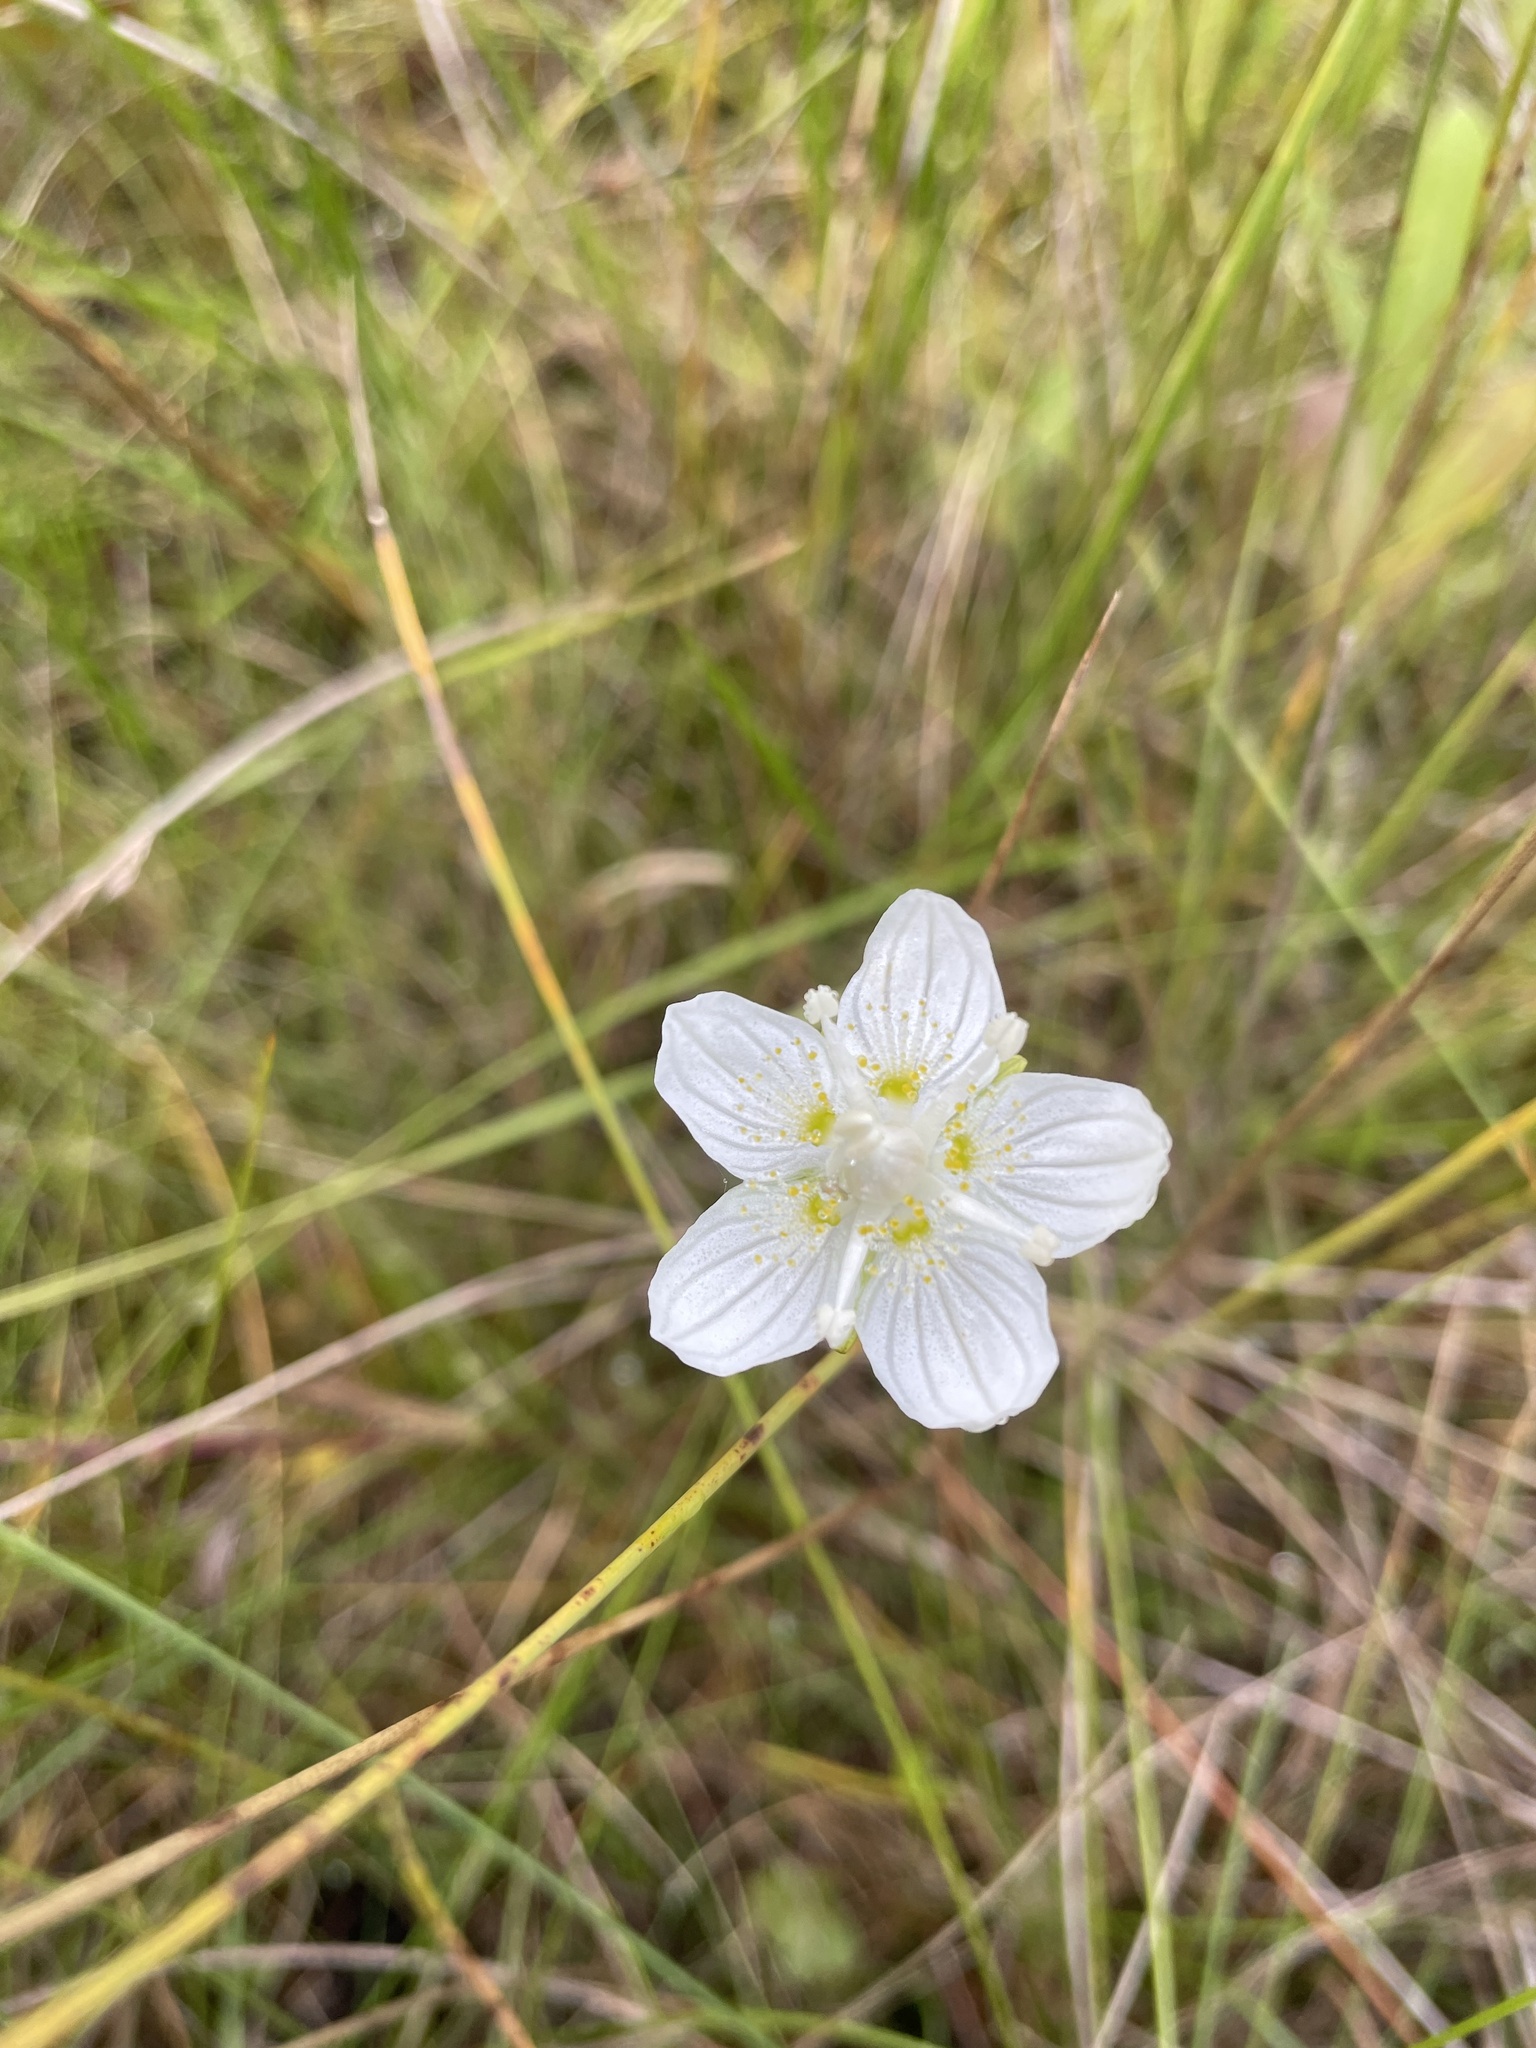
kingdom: Plantae
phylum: Tracheophyta
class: Magnoliopsida
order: Celastrales
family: Parnassiaceae
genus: Parnassia
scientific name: Parnassia palustris
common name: Grass-of-parnassus
